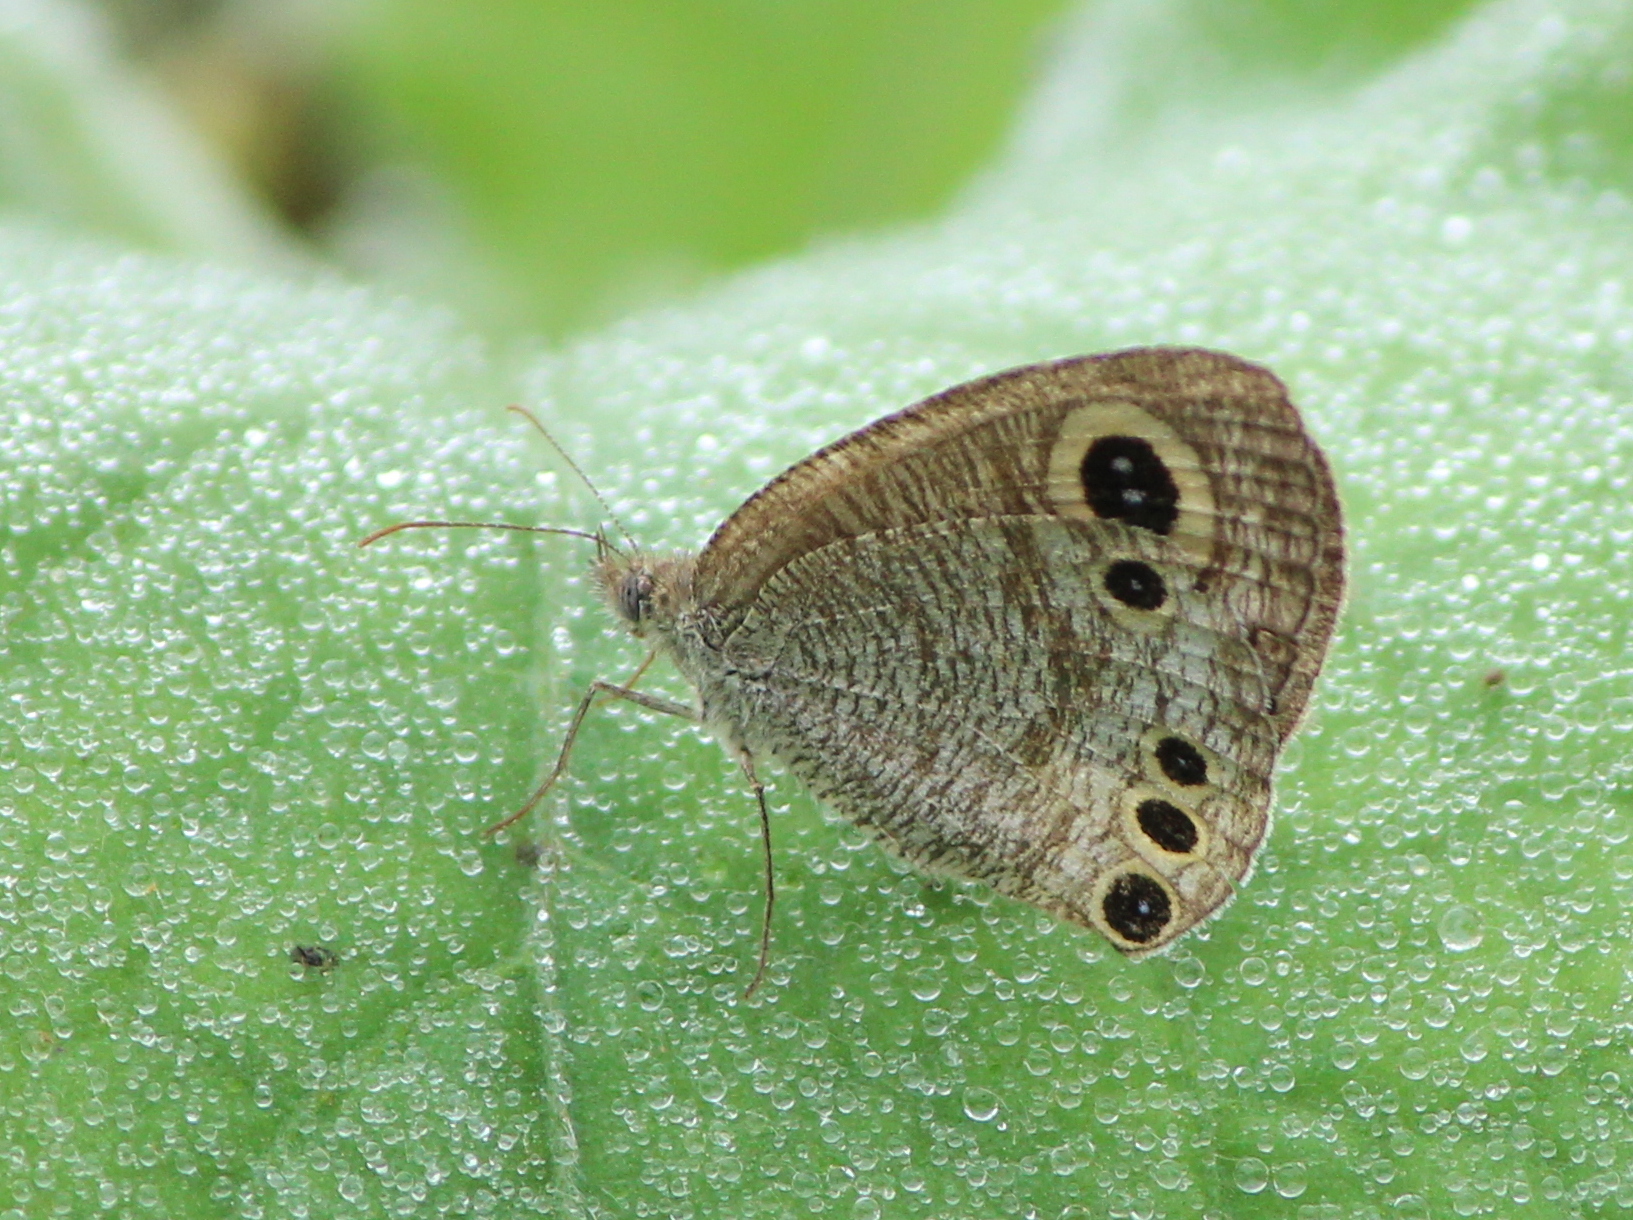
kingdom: Animalia
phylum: Arthropoda
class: Insecta
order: Lepidoptera
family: Nymphalidae
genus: Ypthima
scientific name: Ypthima huebneri
